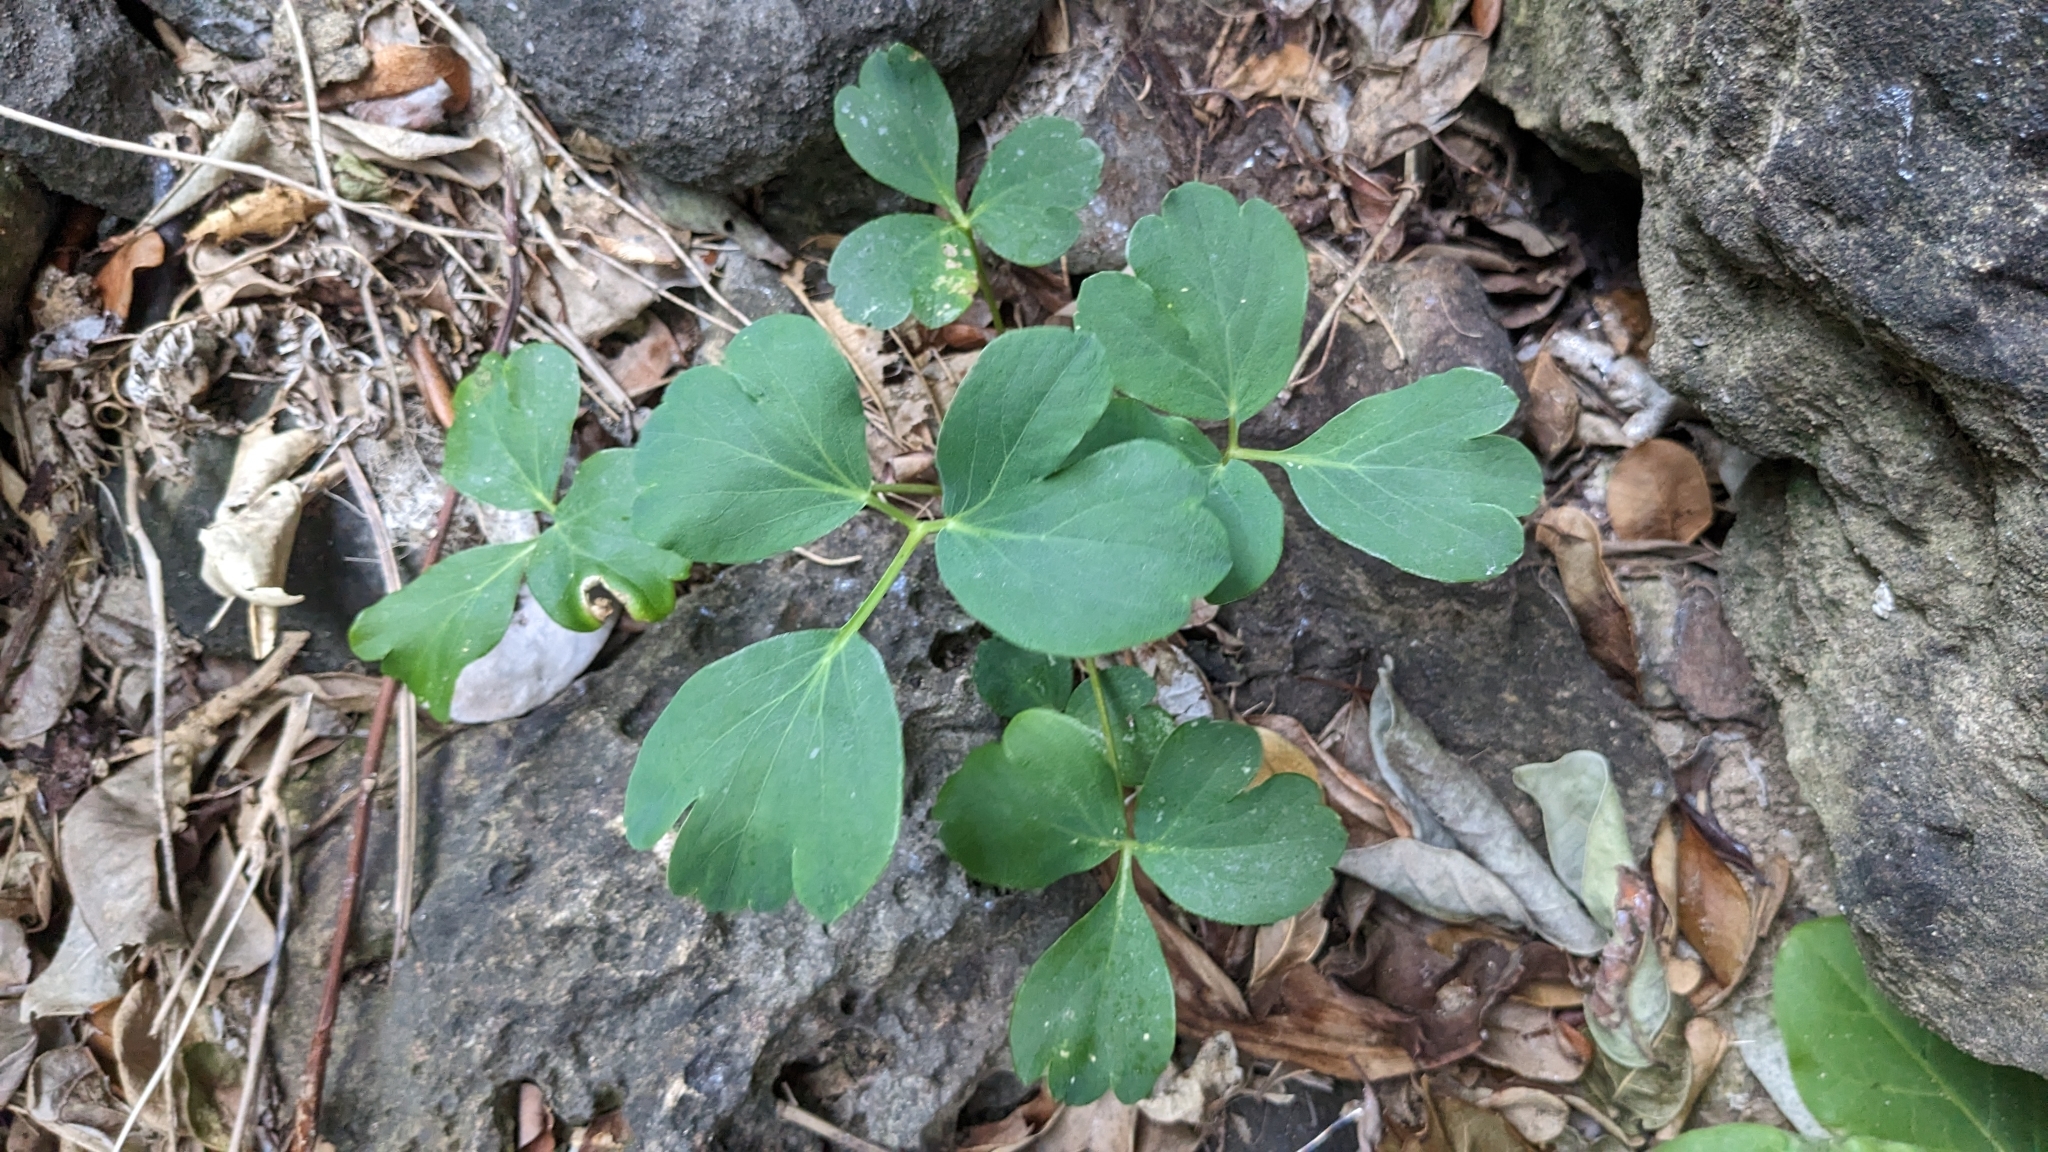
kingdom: Plantae
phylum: Tracheophyta
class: Magnoliopsida
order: Apiales
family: Apiaceae
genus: Peucedanum
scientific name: Peucedanum japonicum
